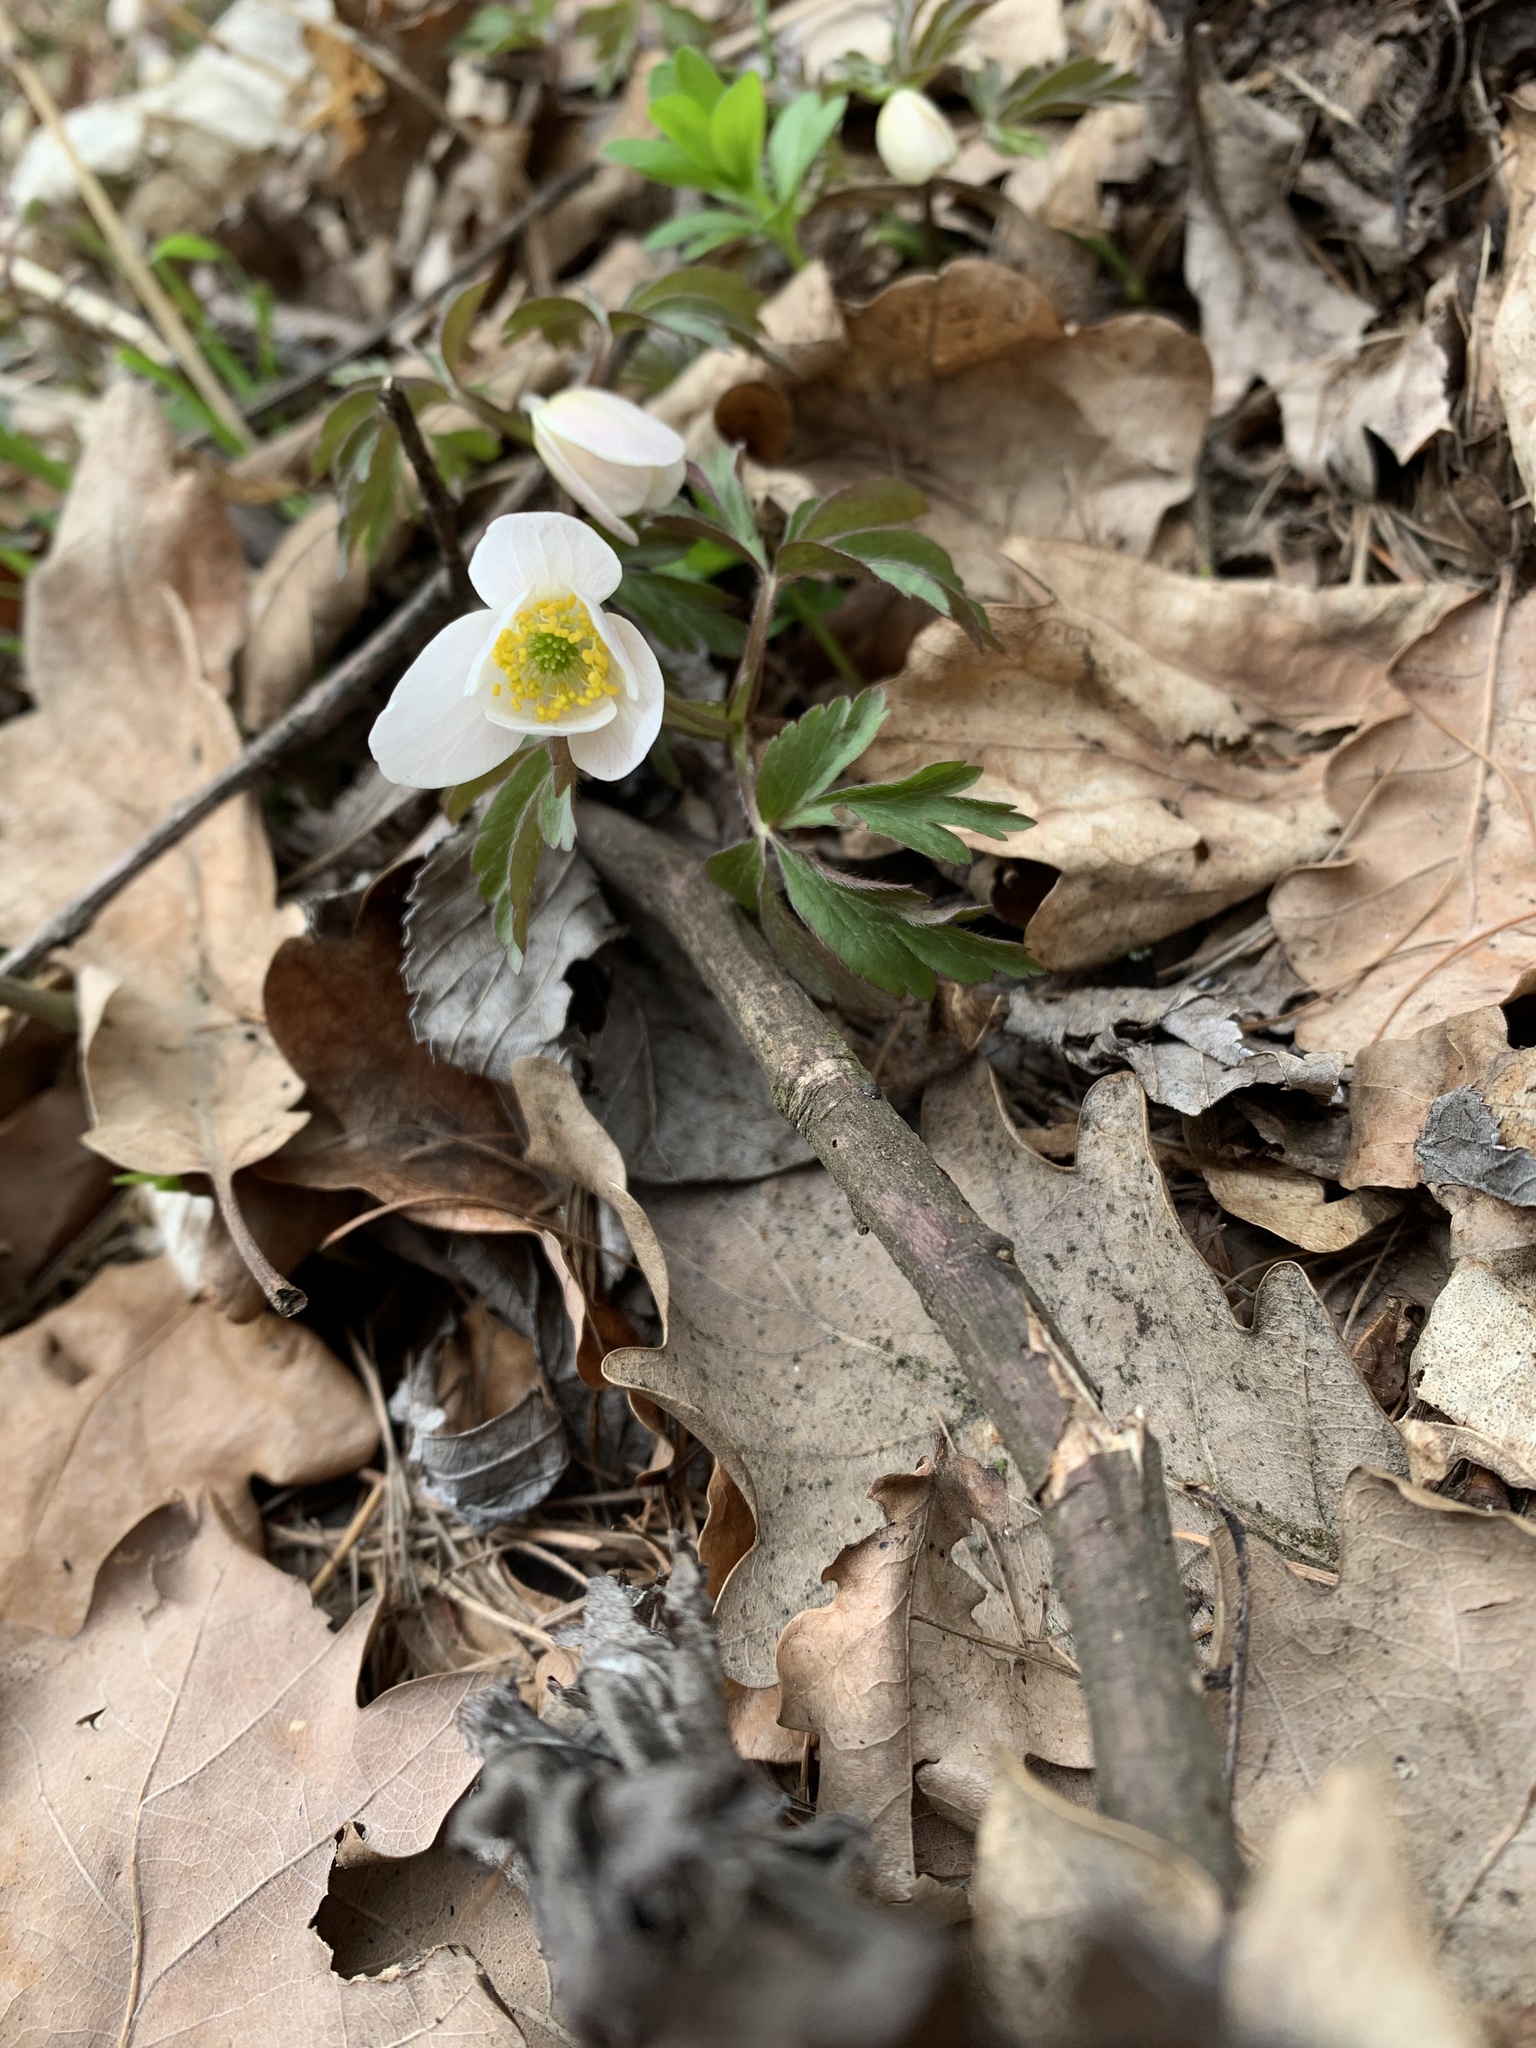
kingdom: Plantae
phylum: Tracheophyta
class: Magnoliopsida
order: Ranunculales
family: Ranunculaceae
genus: Anemone
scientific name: Anemone nemorosa
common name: Wood anemone
